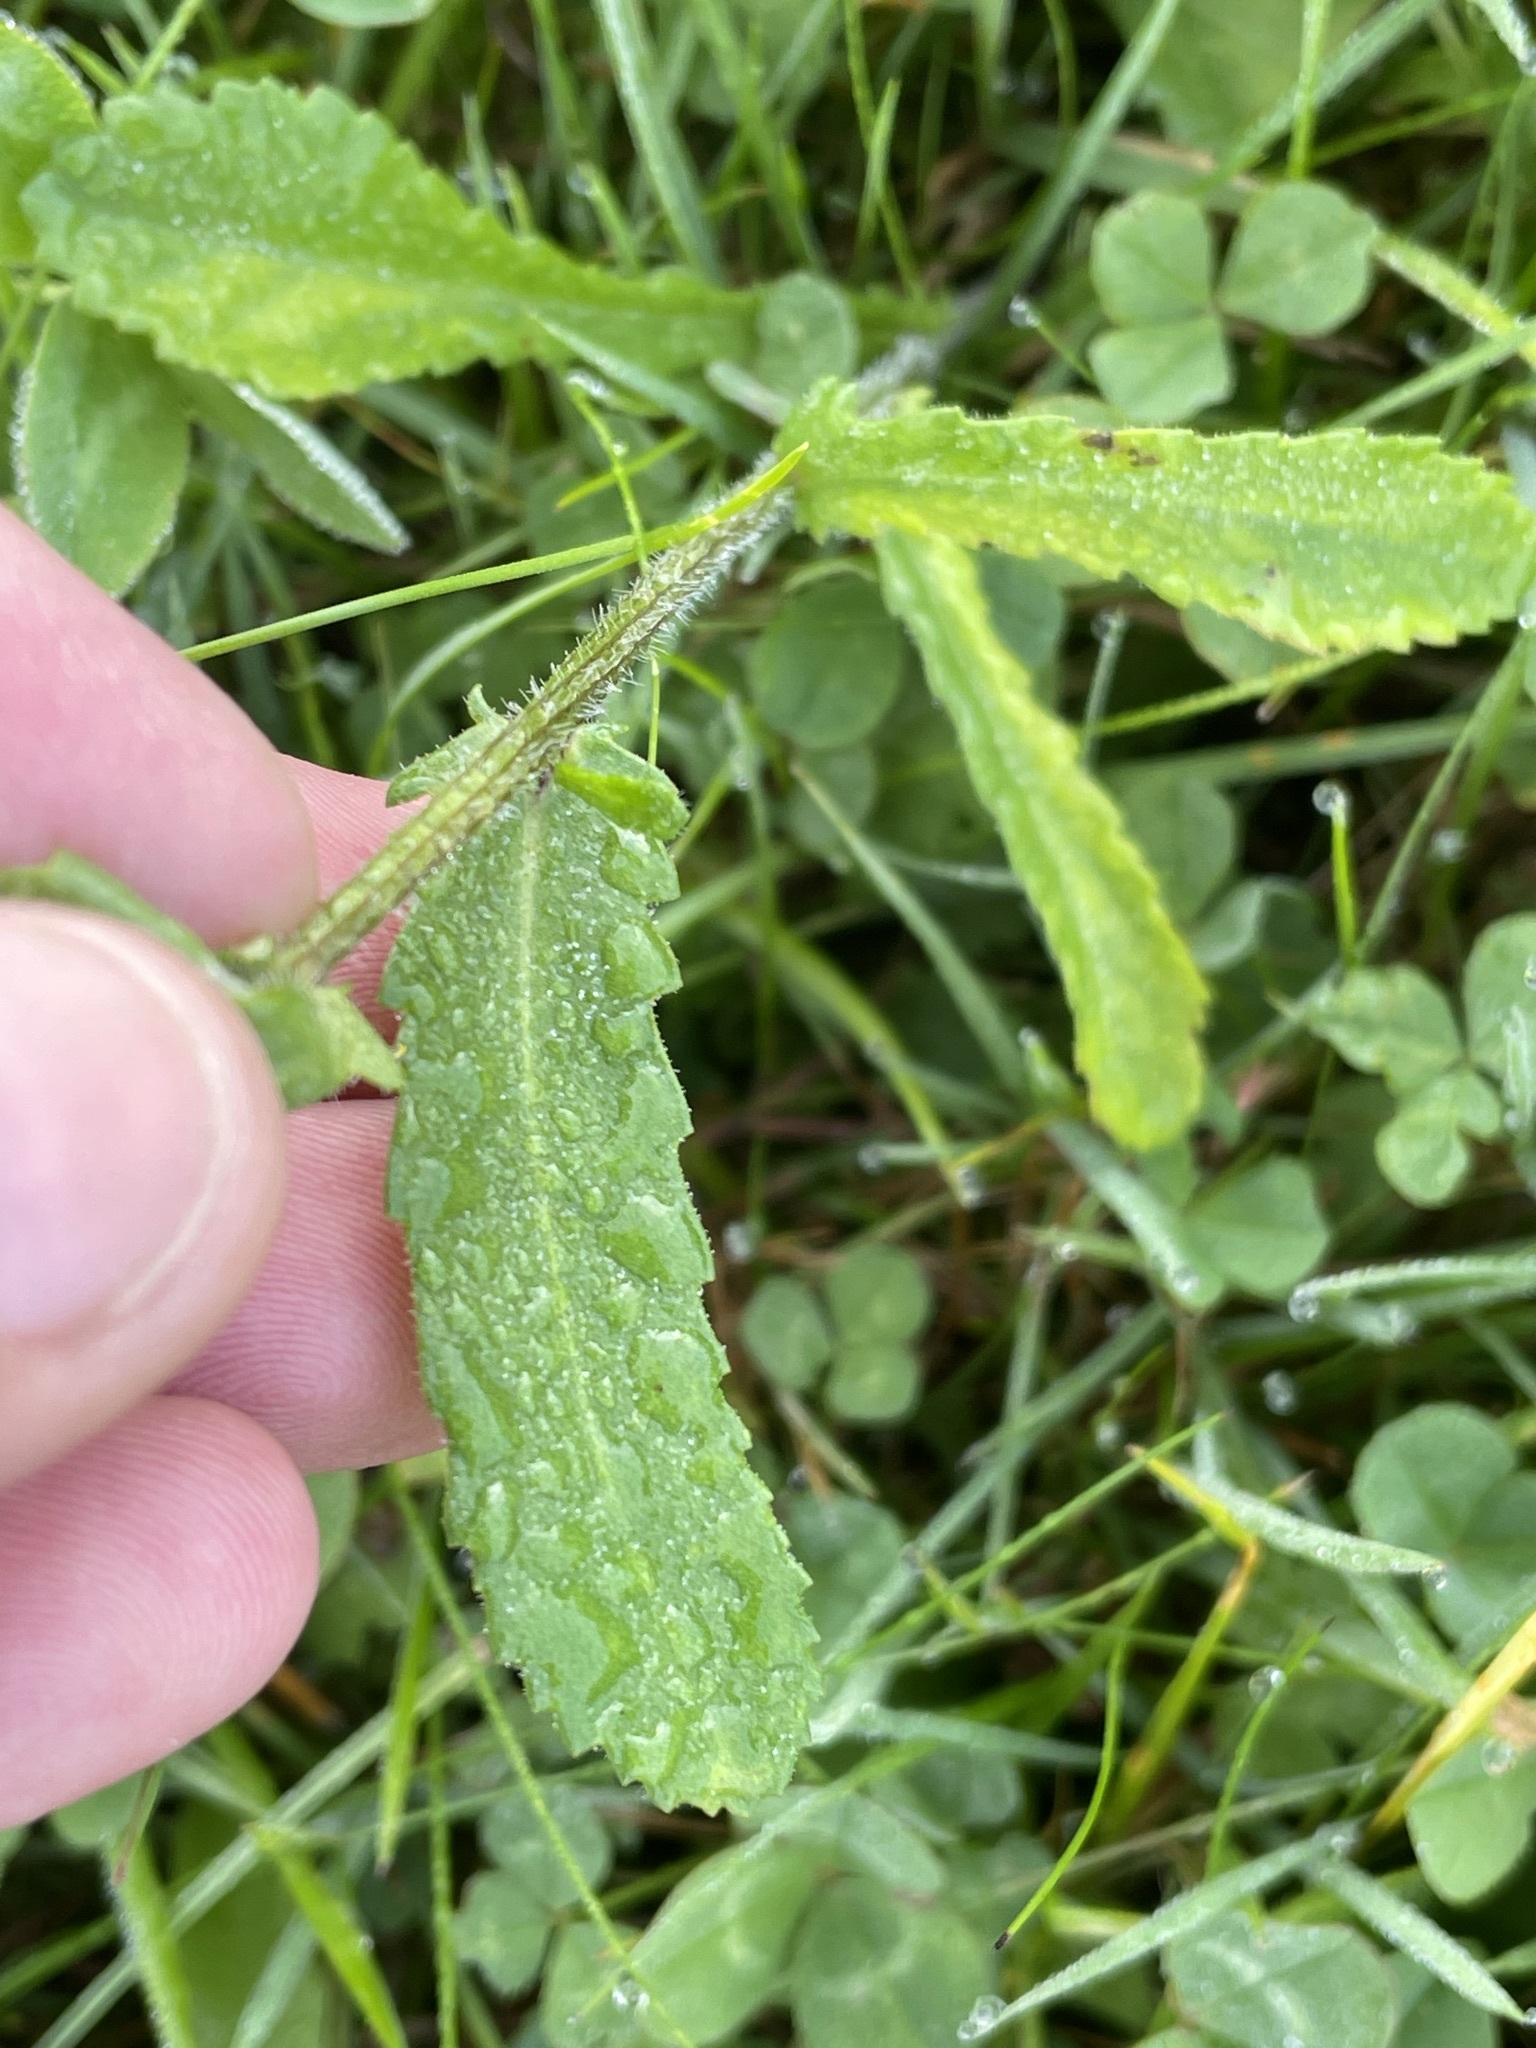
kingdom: Plantae
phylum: Tracheophyta
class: Magnoliopsida
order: Asterales
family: Asteraceae
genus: Leucanthemum
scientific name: Leucanthemum vulgare
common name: Oxeye daisy
